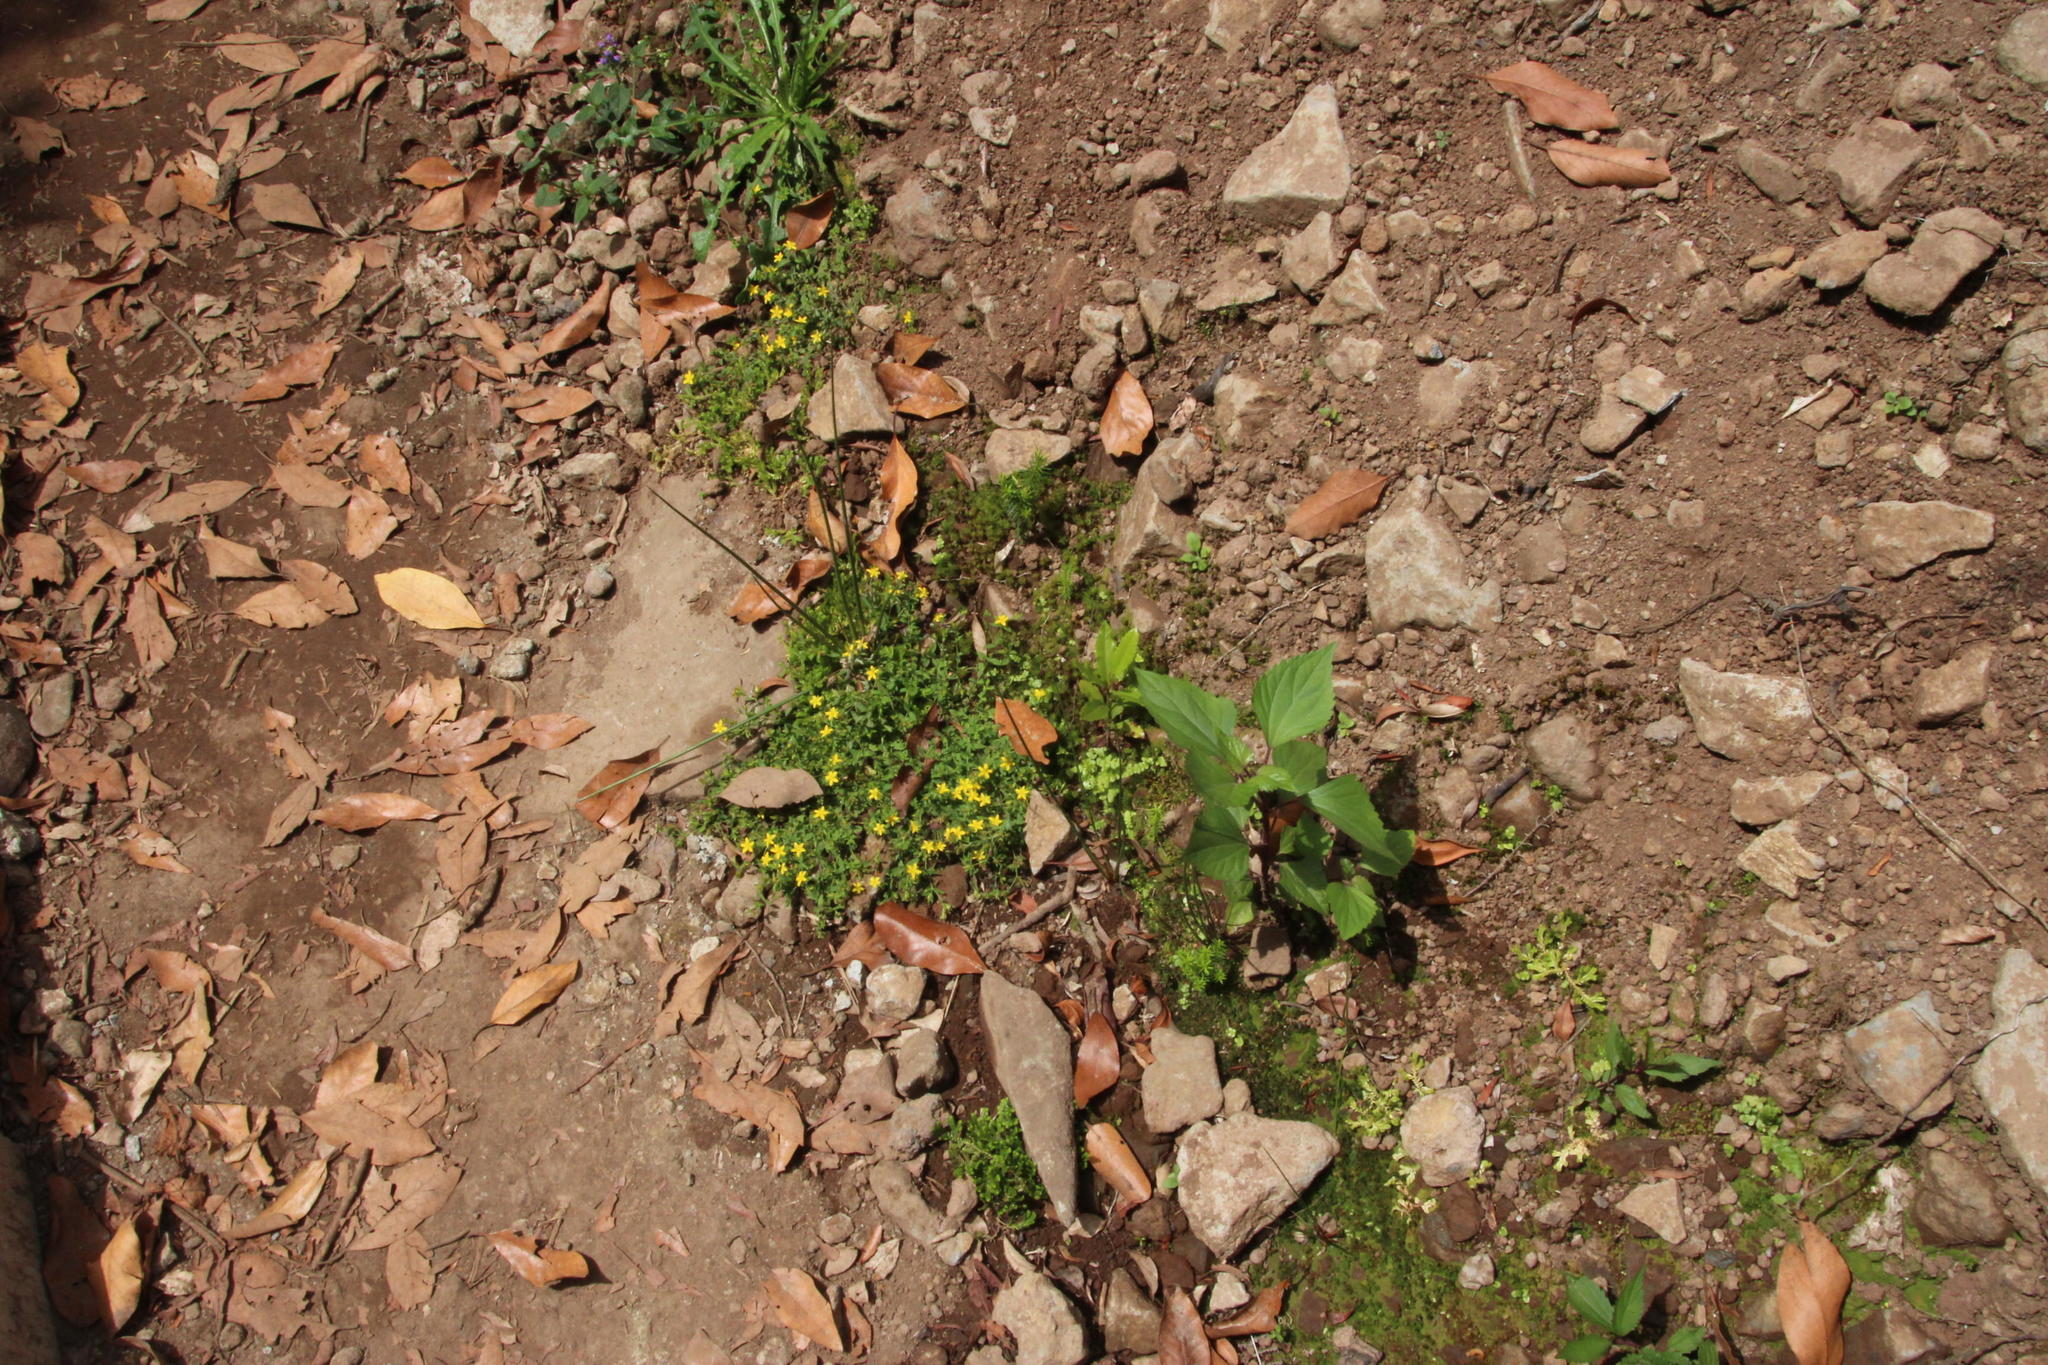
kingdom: Plantae
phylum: Tracheophyta
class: Magnoliopsida
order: Malpighiales
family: Hypericaceae
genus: Hypericum
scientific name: Hypericum humifusum
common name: Trailing st. john's-wort
